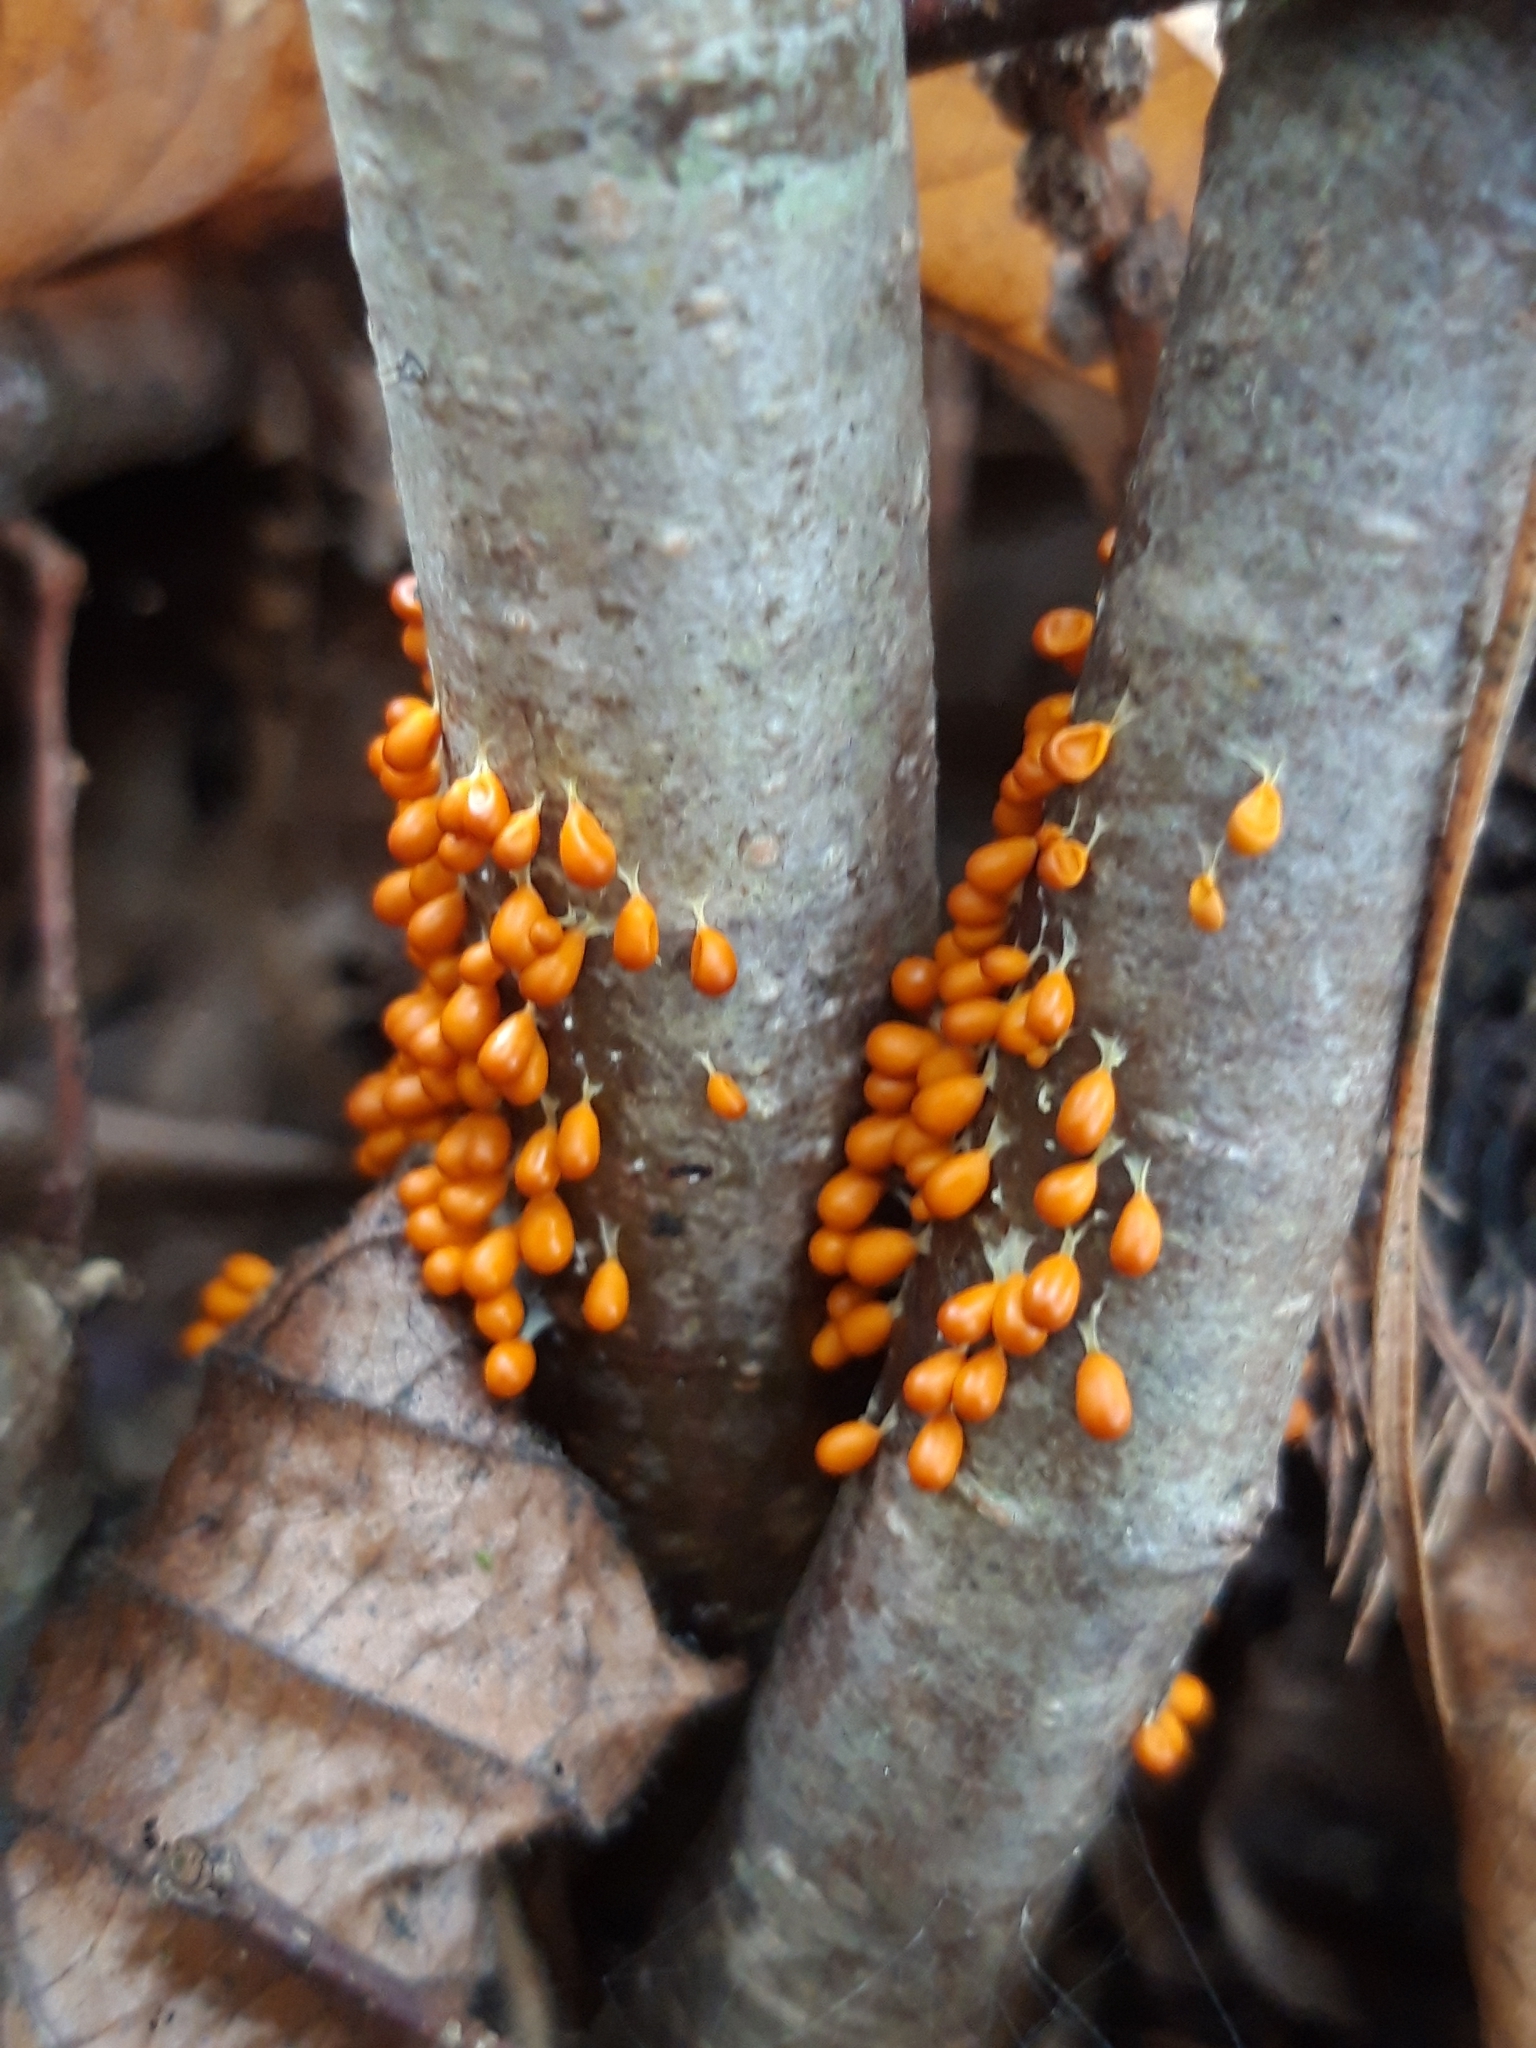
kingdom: Protozoa
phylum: Mycetozoa
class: Myxomycetes
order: Physarales
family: Physaraceae
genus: Leocarpus
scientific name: Leocarpus fragilis
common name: Insect-egg slime
